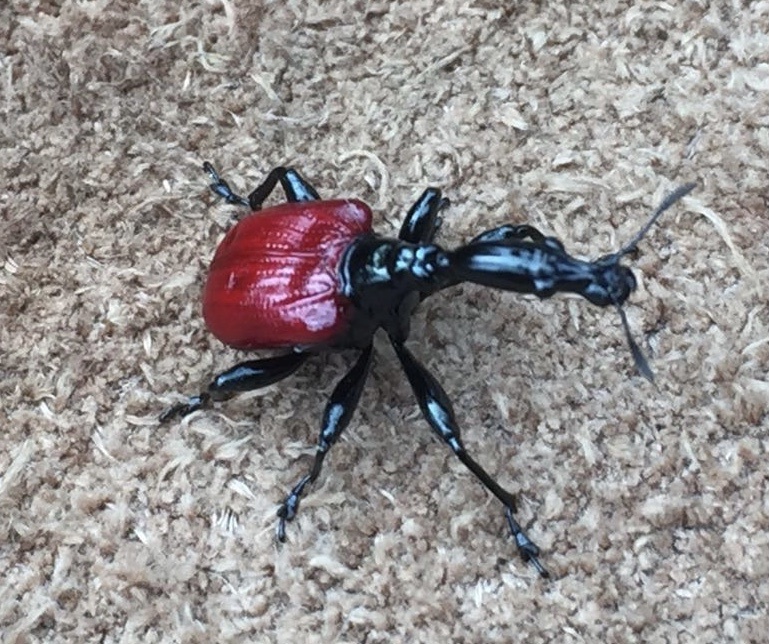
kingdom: Animalia
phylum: Arthropoda
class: Insecta
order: Coleoptera
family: Attelabidae
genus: Trachelophorus
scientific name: Trachelophorus giraffa
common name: Giraffe weevil
